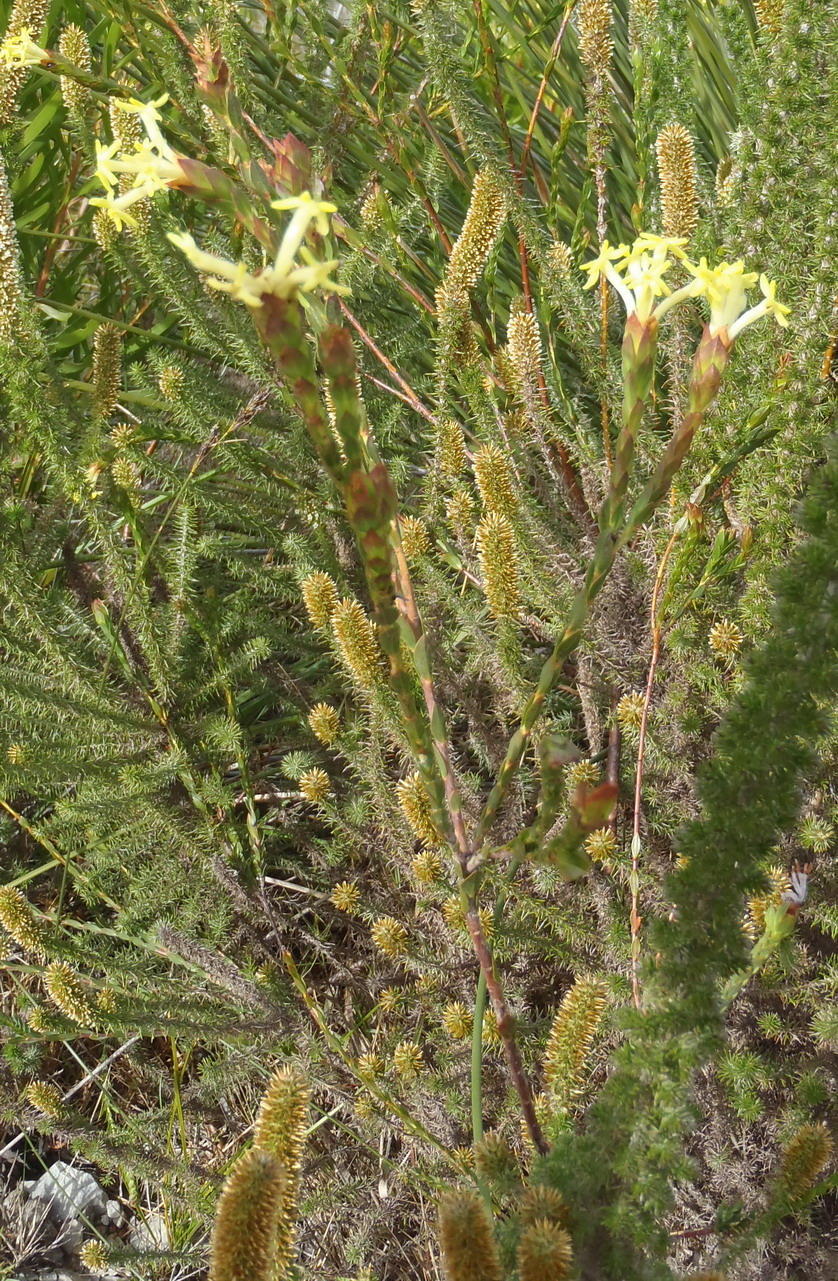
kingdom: Plantae
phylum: Tracheophyta
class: Magnoliopsida
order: Malvales
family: Thymelaeaceae
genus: Gnidia
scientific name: Gnidia oppositifolia
